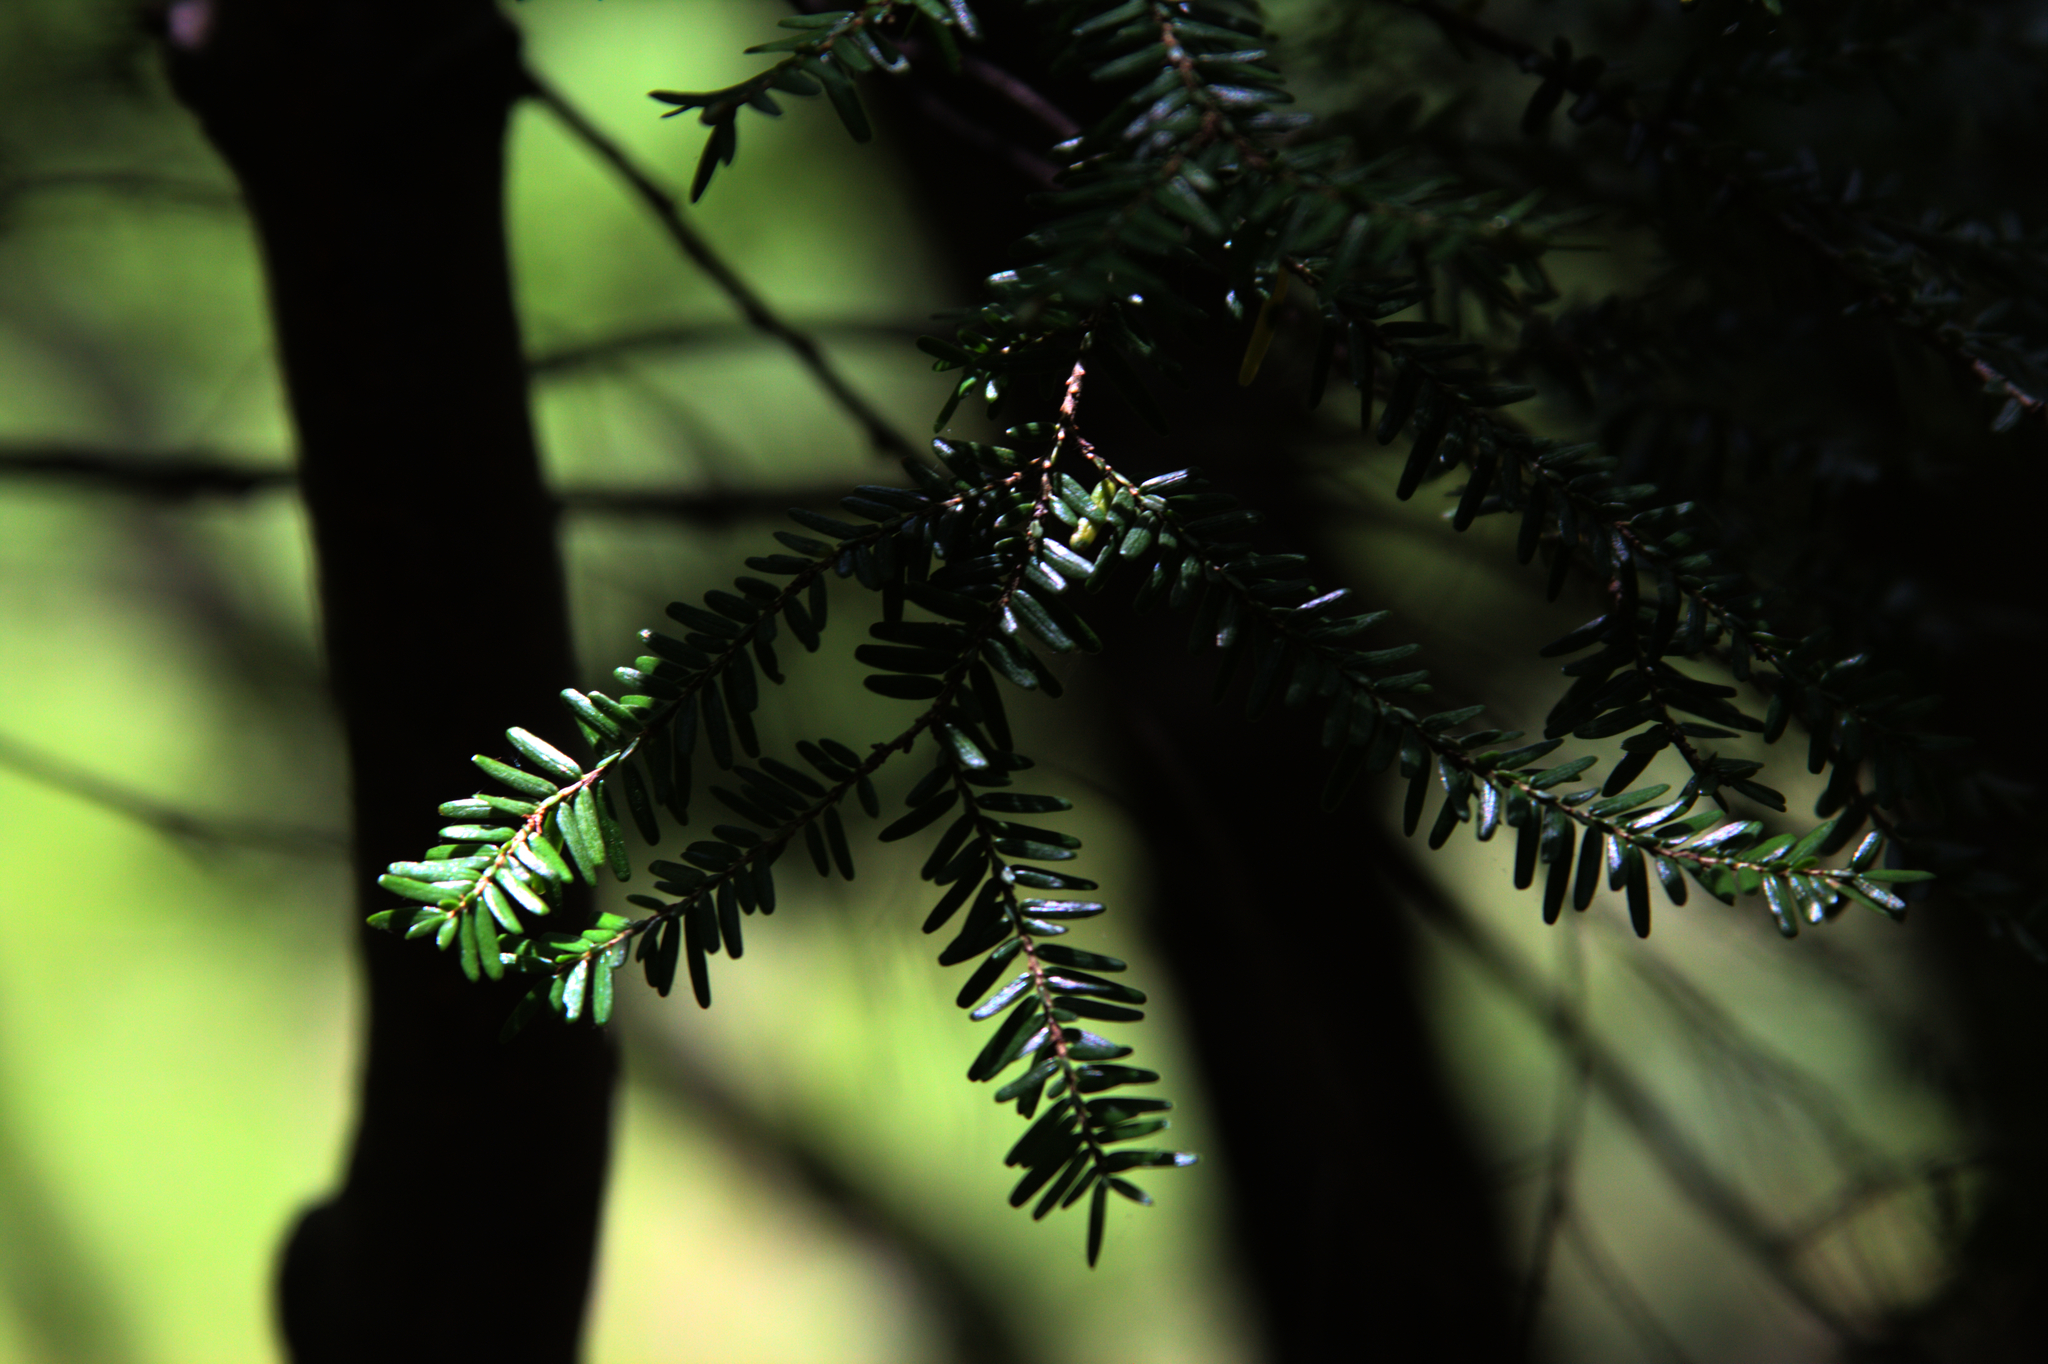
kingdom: Plantae
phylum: Tracheophyta
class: Pinopsida
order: Pinales
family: Pinaceae
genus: Tsuga
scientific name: Tsuga canadensis
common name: Eastern hemlock
